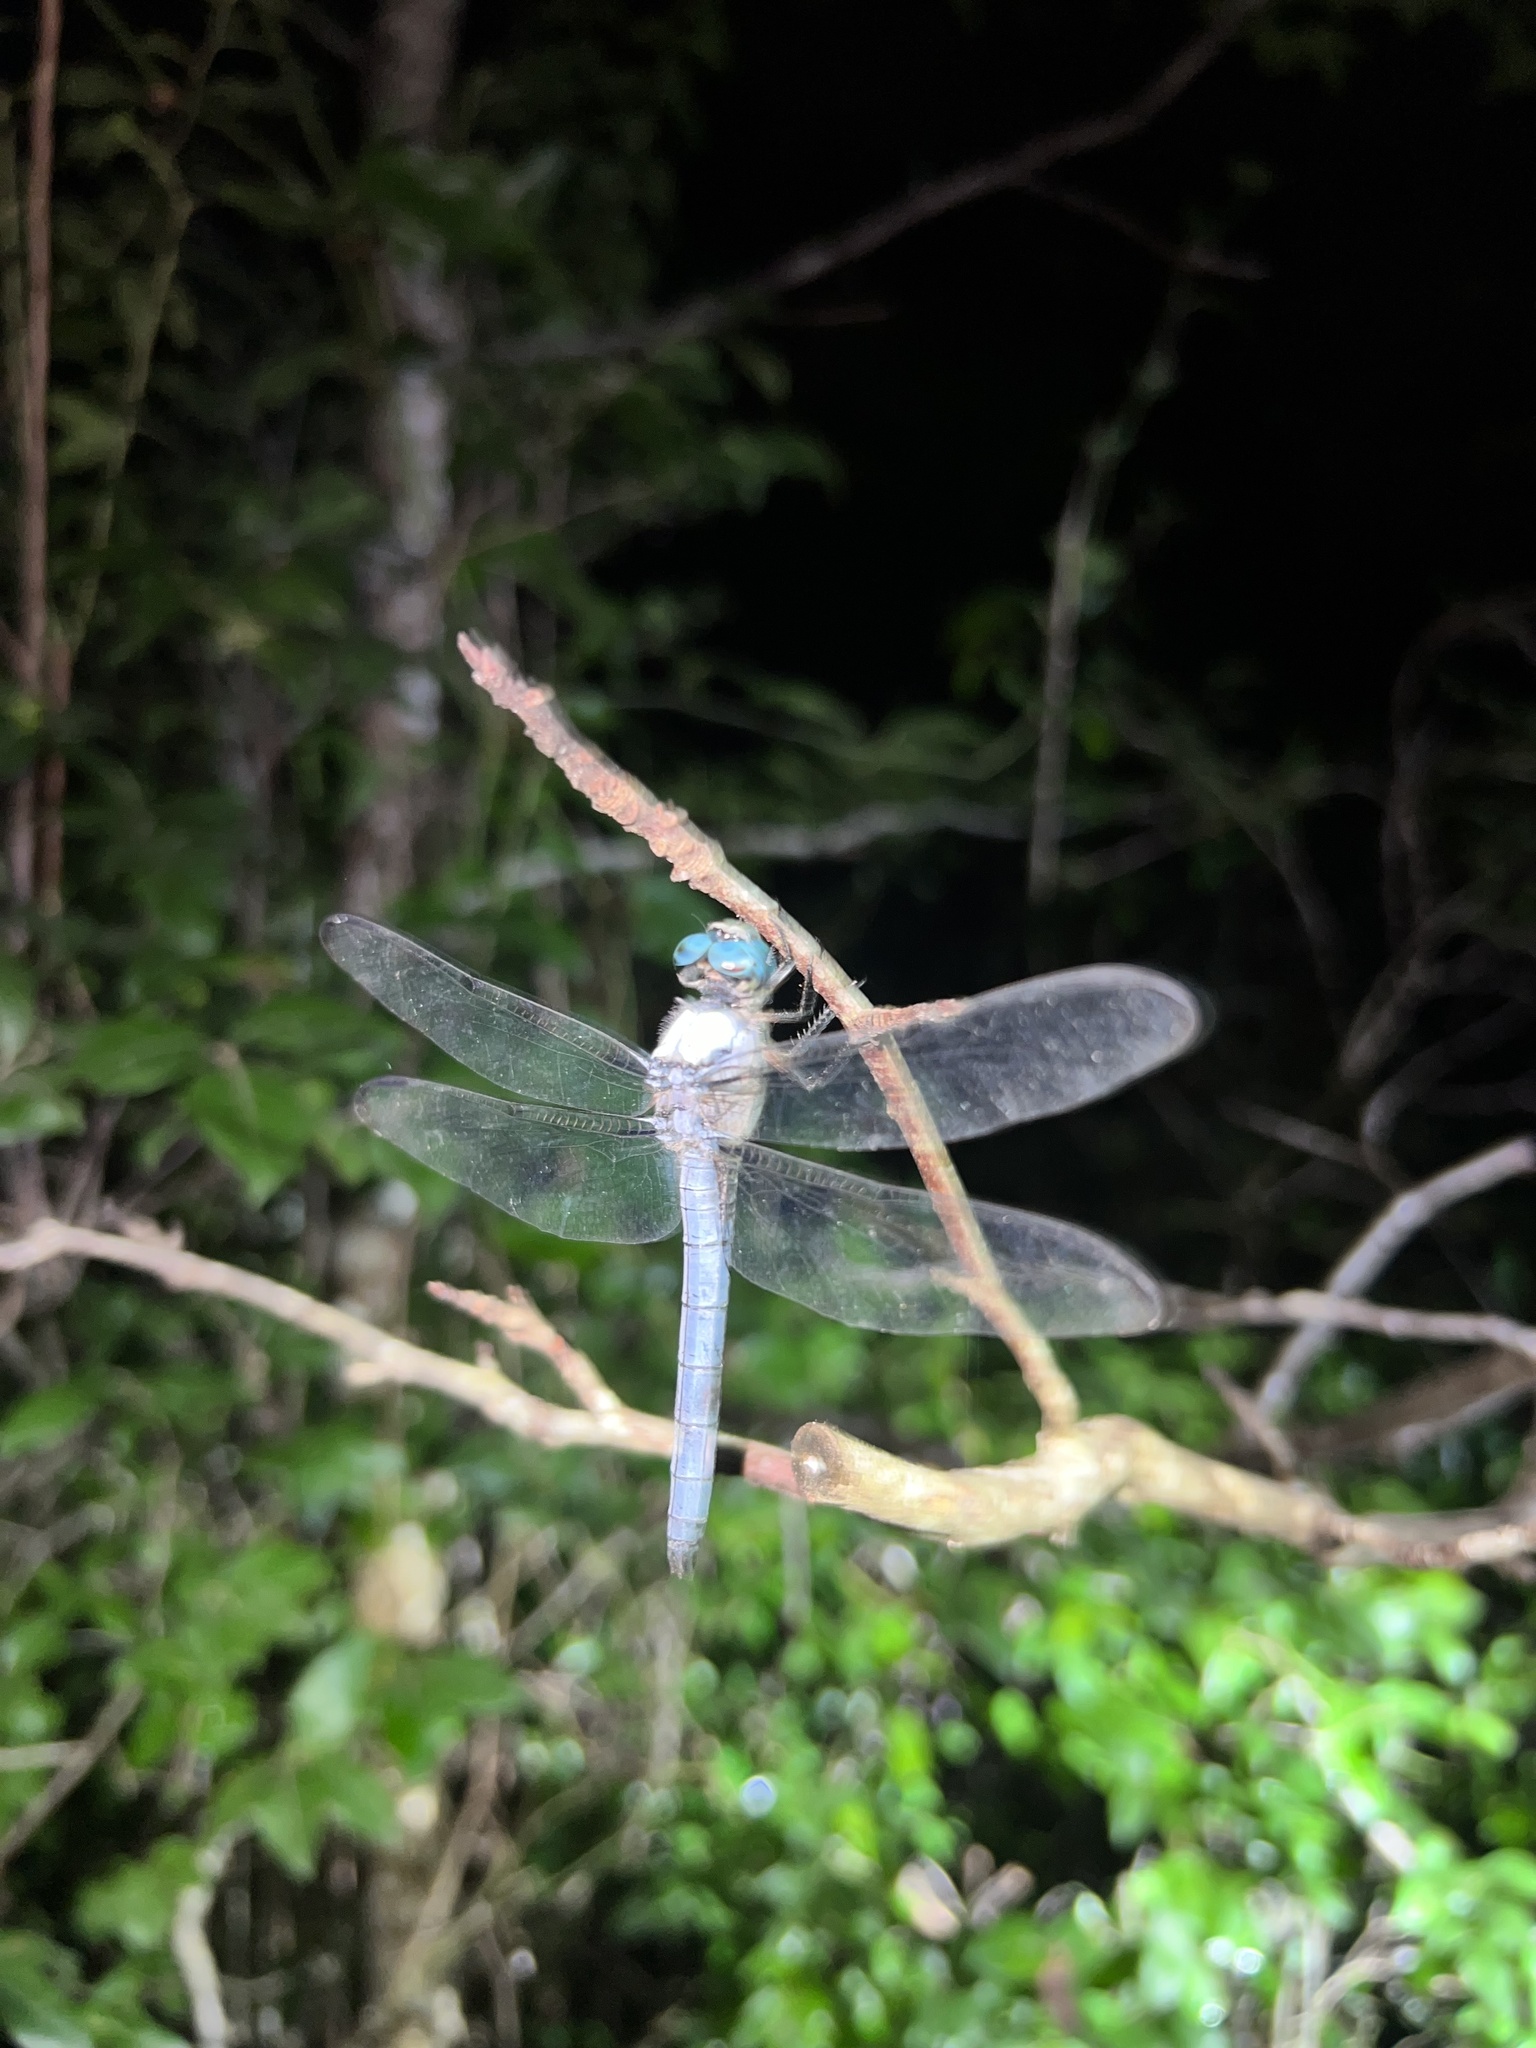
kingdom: Animalia
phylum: Arthropoda
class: Insecta
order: Odonata
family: Libellulidae
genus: Libellula
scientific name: Libellula vibrans
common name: Great blue skimmer
